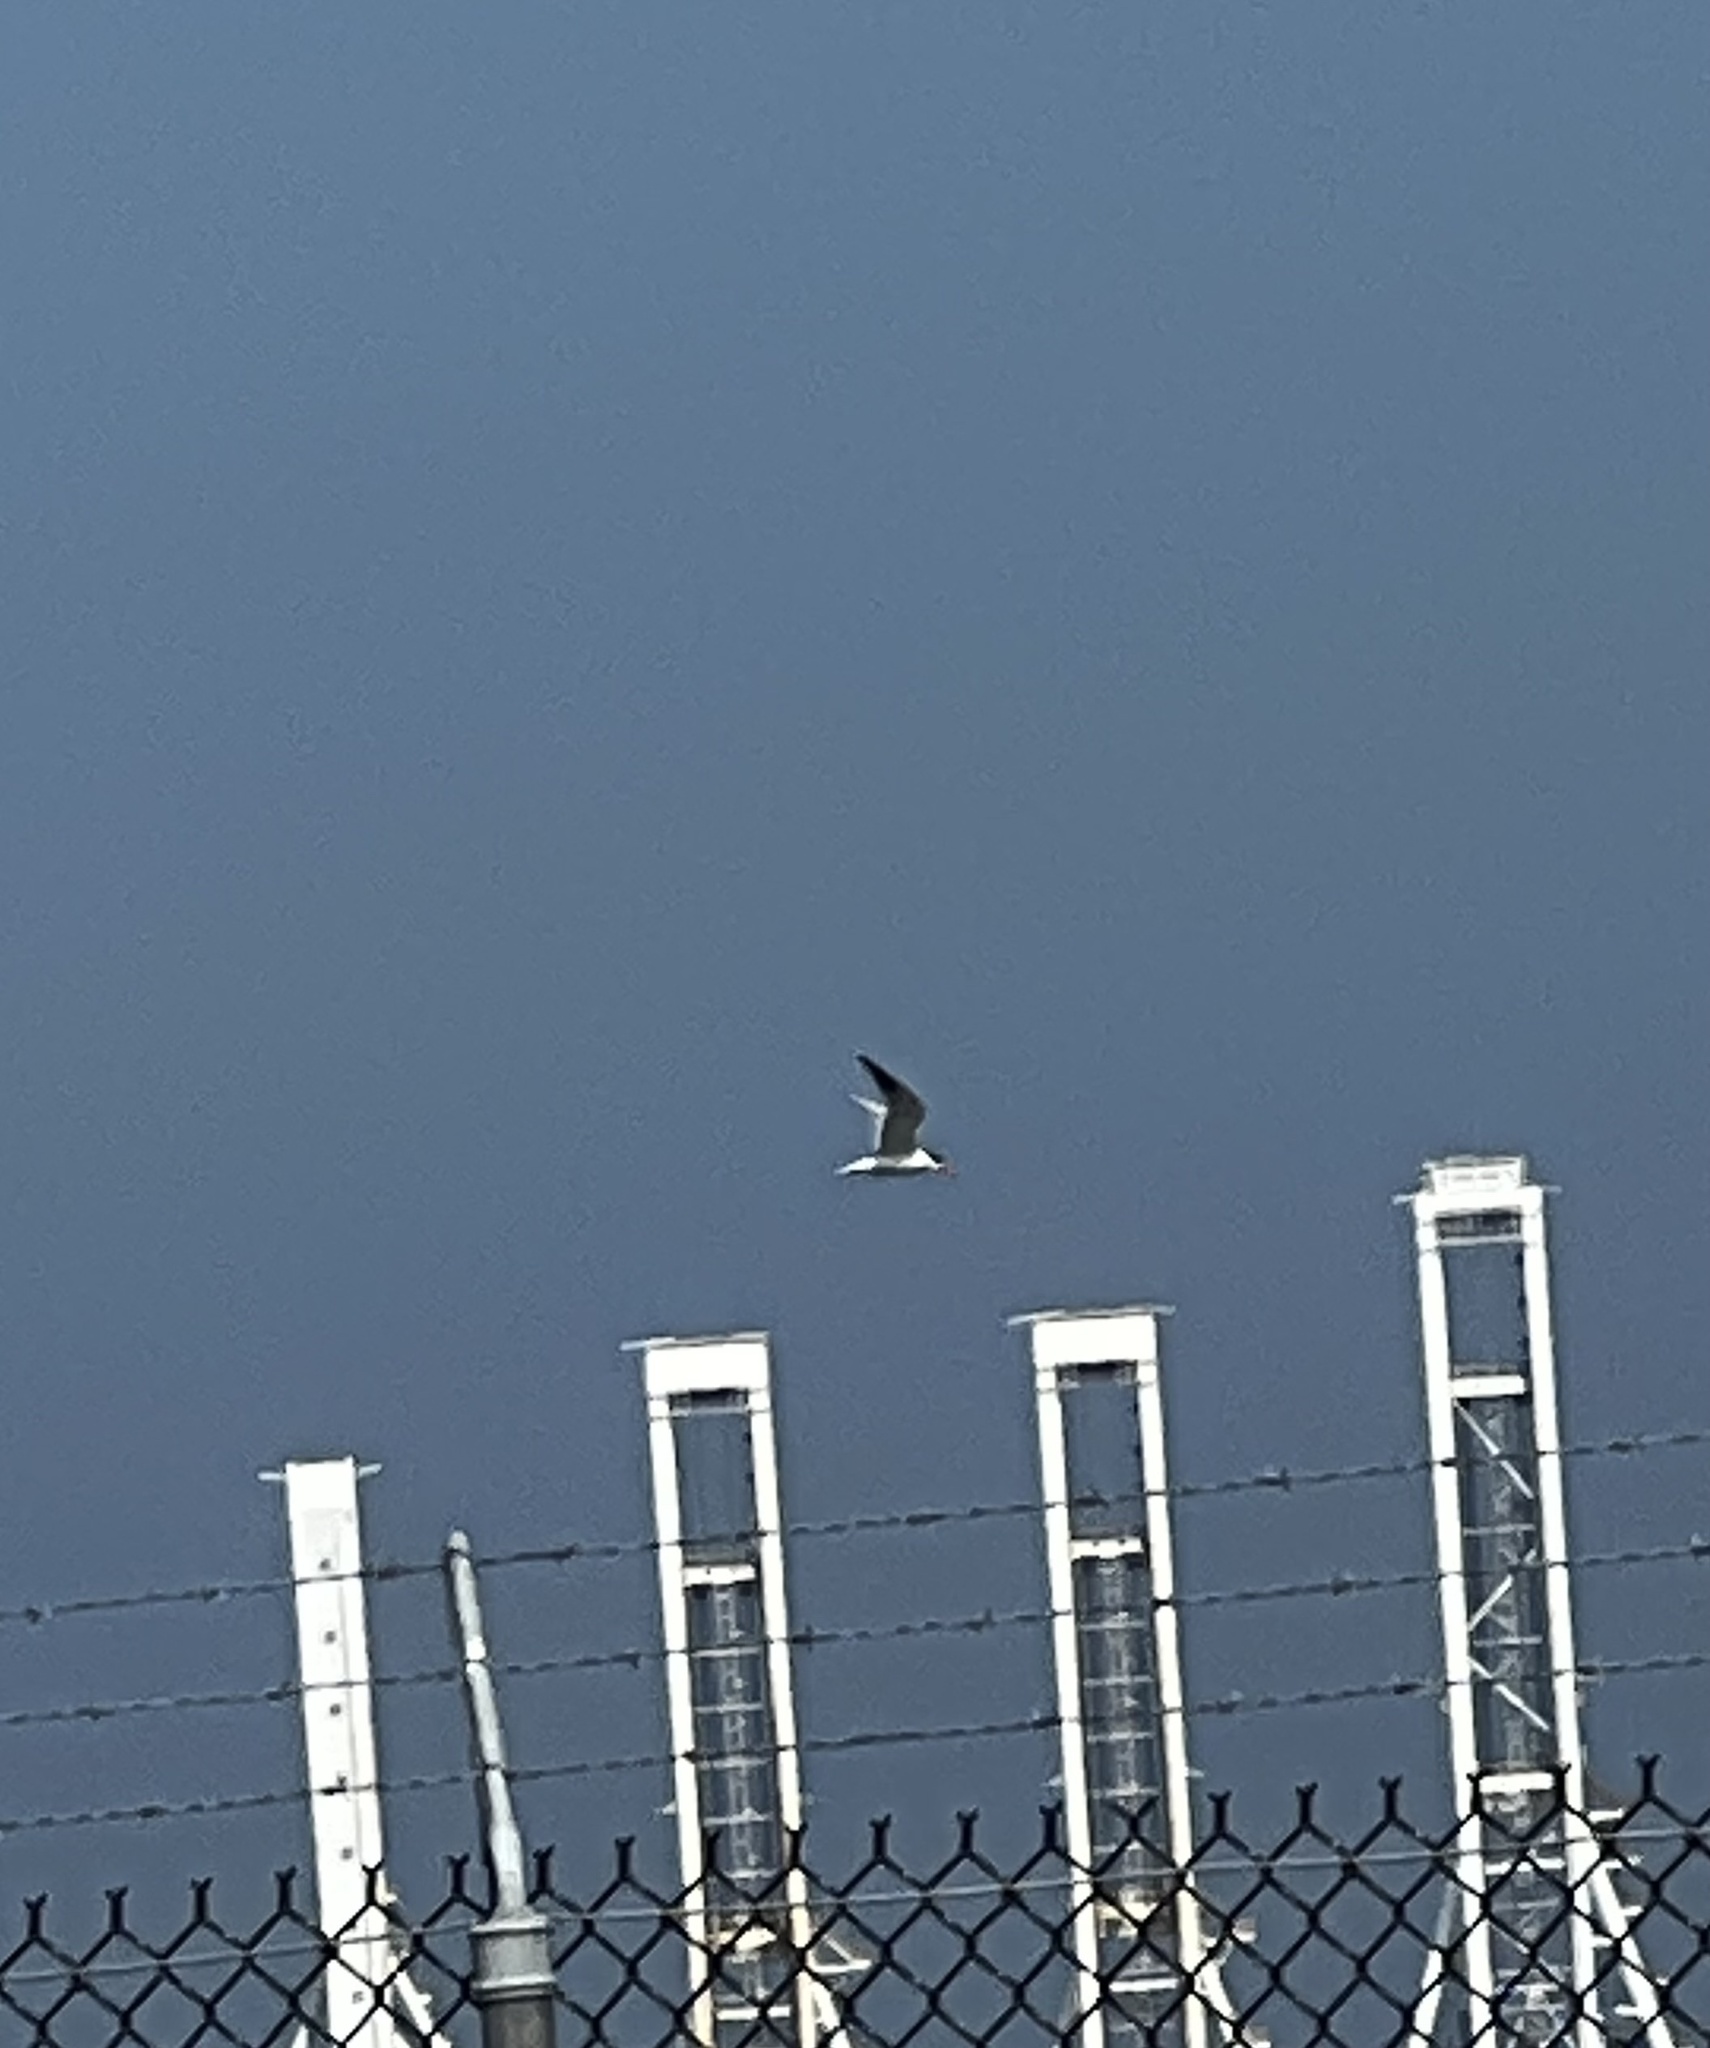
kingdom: Animalia
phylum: Chordata
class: Aves
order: Charadriiformes
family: Laridae
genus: Hydroprogne
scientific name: Hydroprogne caspia
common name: Caspian tern
